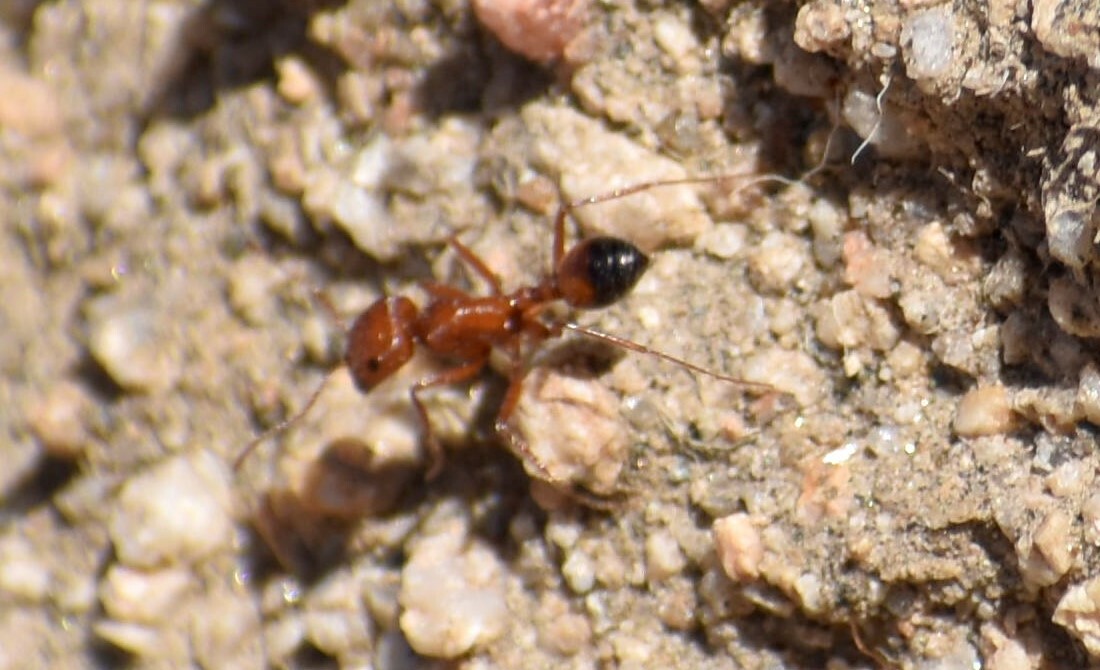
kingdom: Animalia
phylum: Arthropoda
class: Insecta
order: Hymenoptera
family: Formicidae
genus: Pogonomyrmex
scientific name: Pogonomyrmex californicus
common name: California harvester ant
